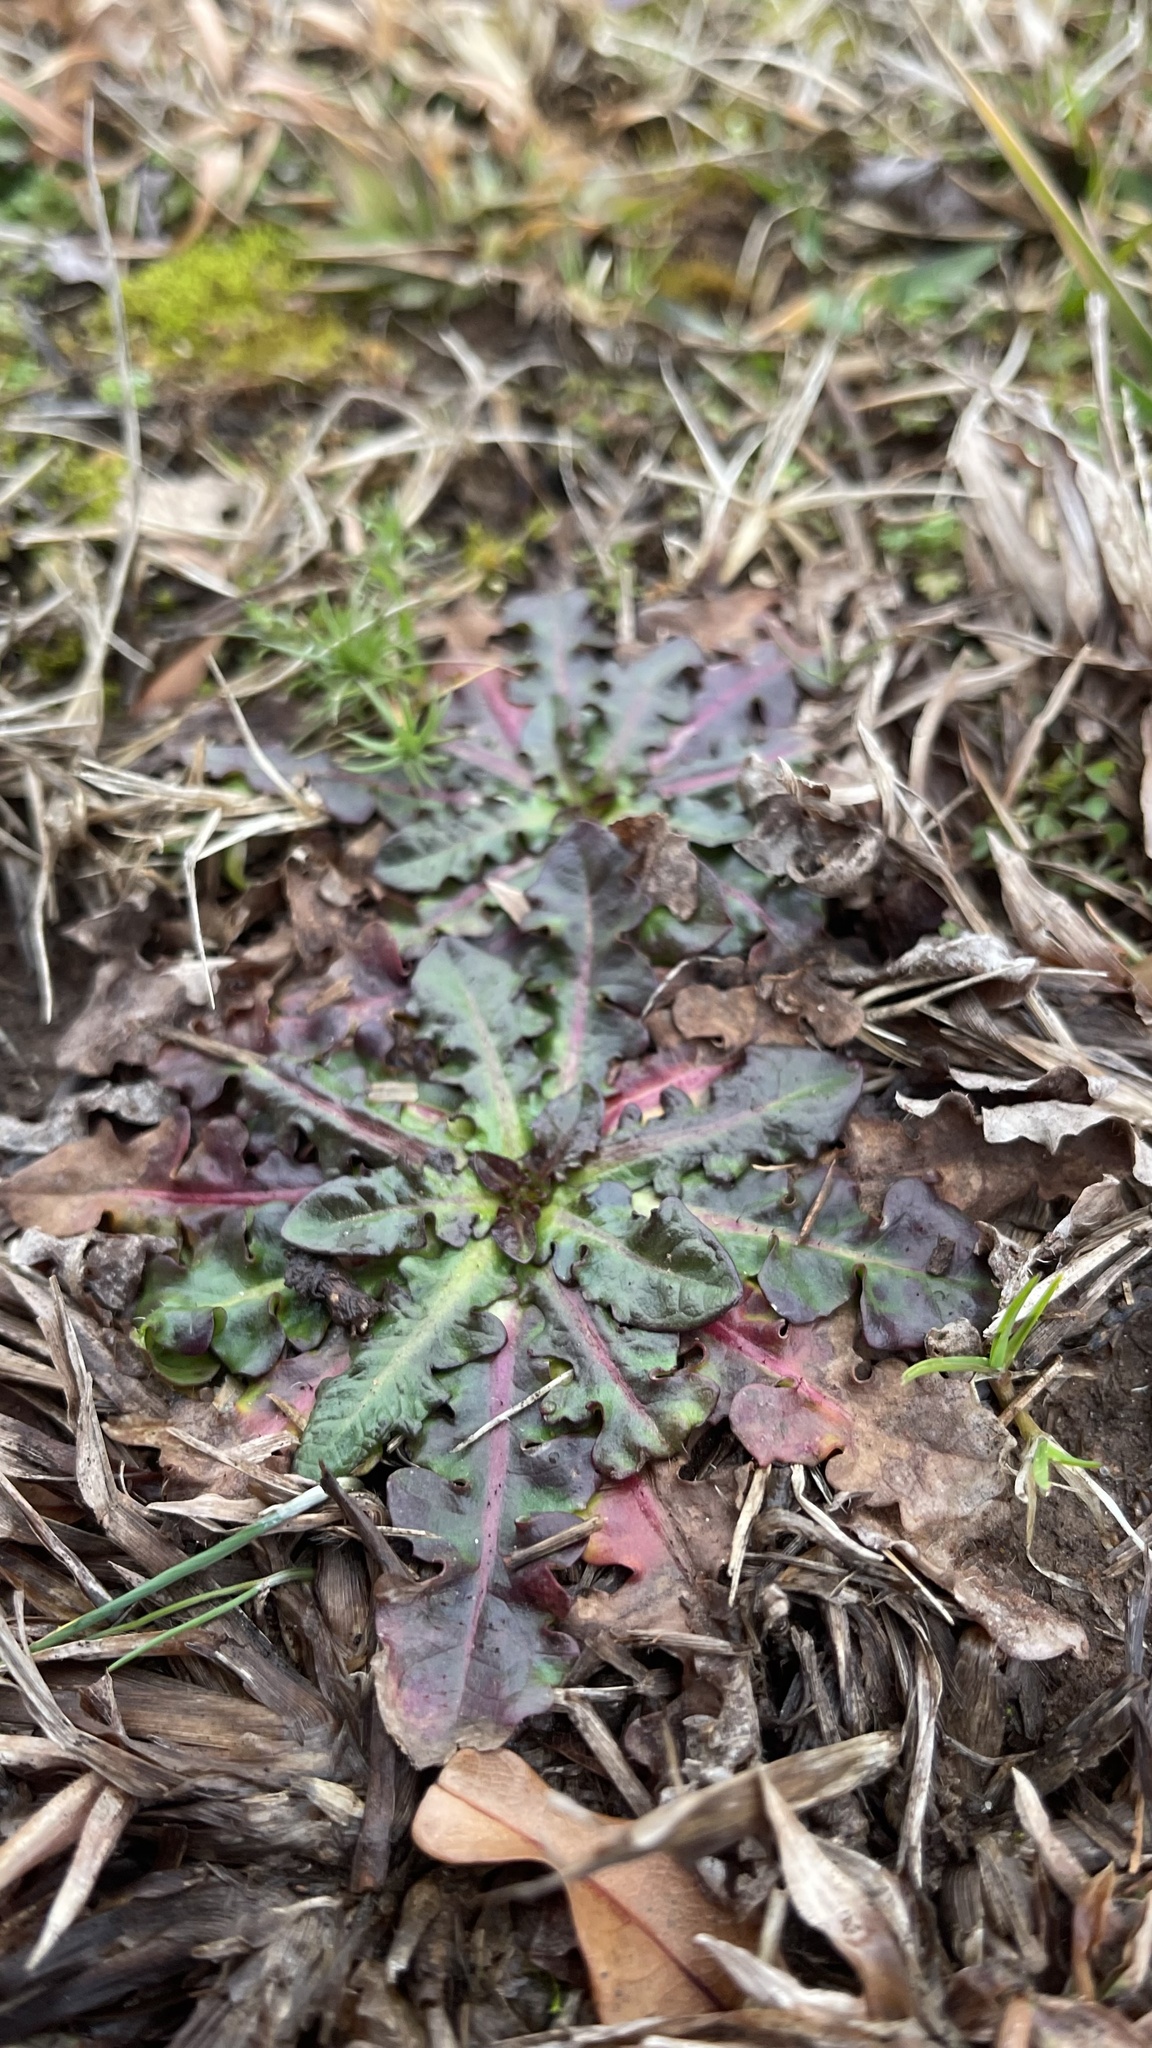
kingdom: Plantae
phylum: Tracheophyta
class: Magnoliopsida
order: Asterales
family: Asteraceae
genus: Hypochaeris
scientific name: Hypochaeris radicata
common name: Flatweed
